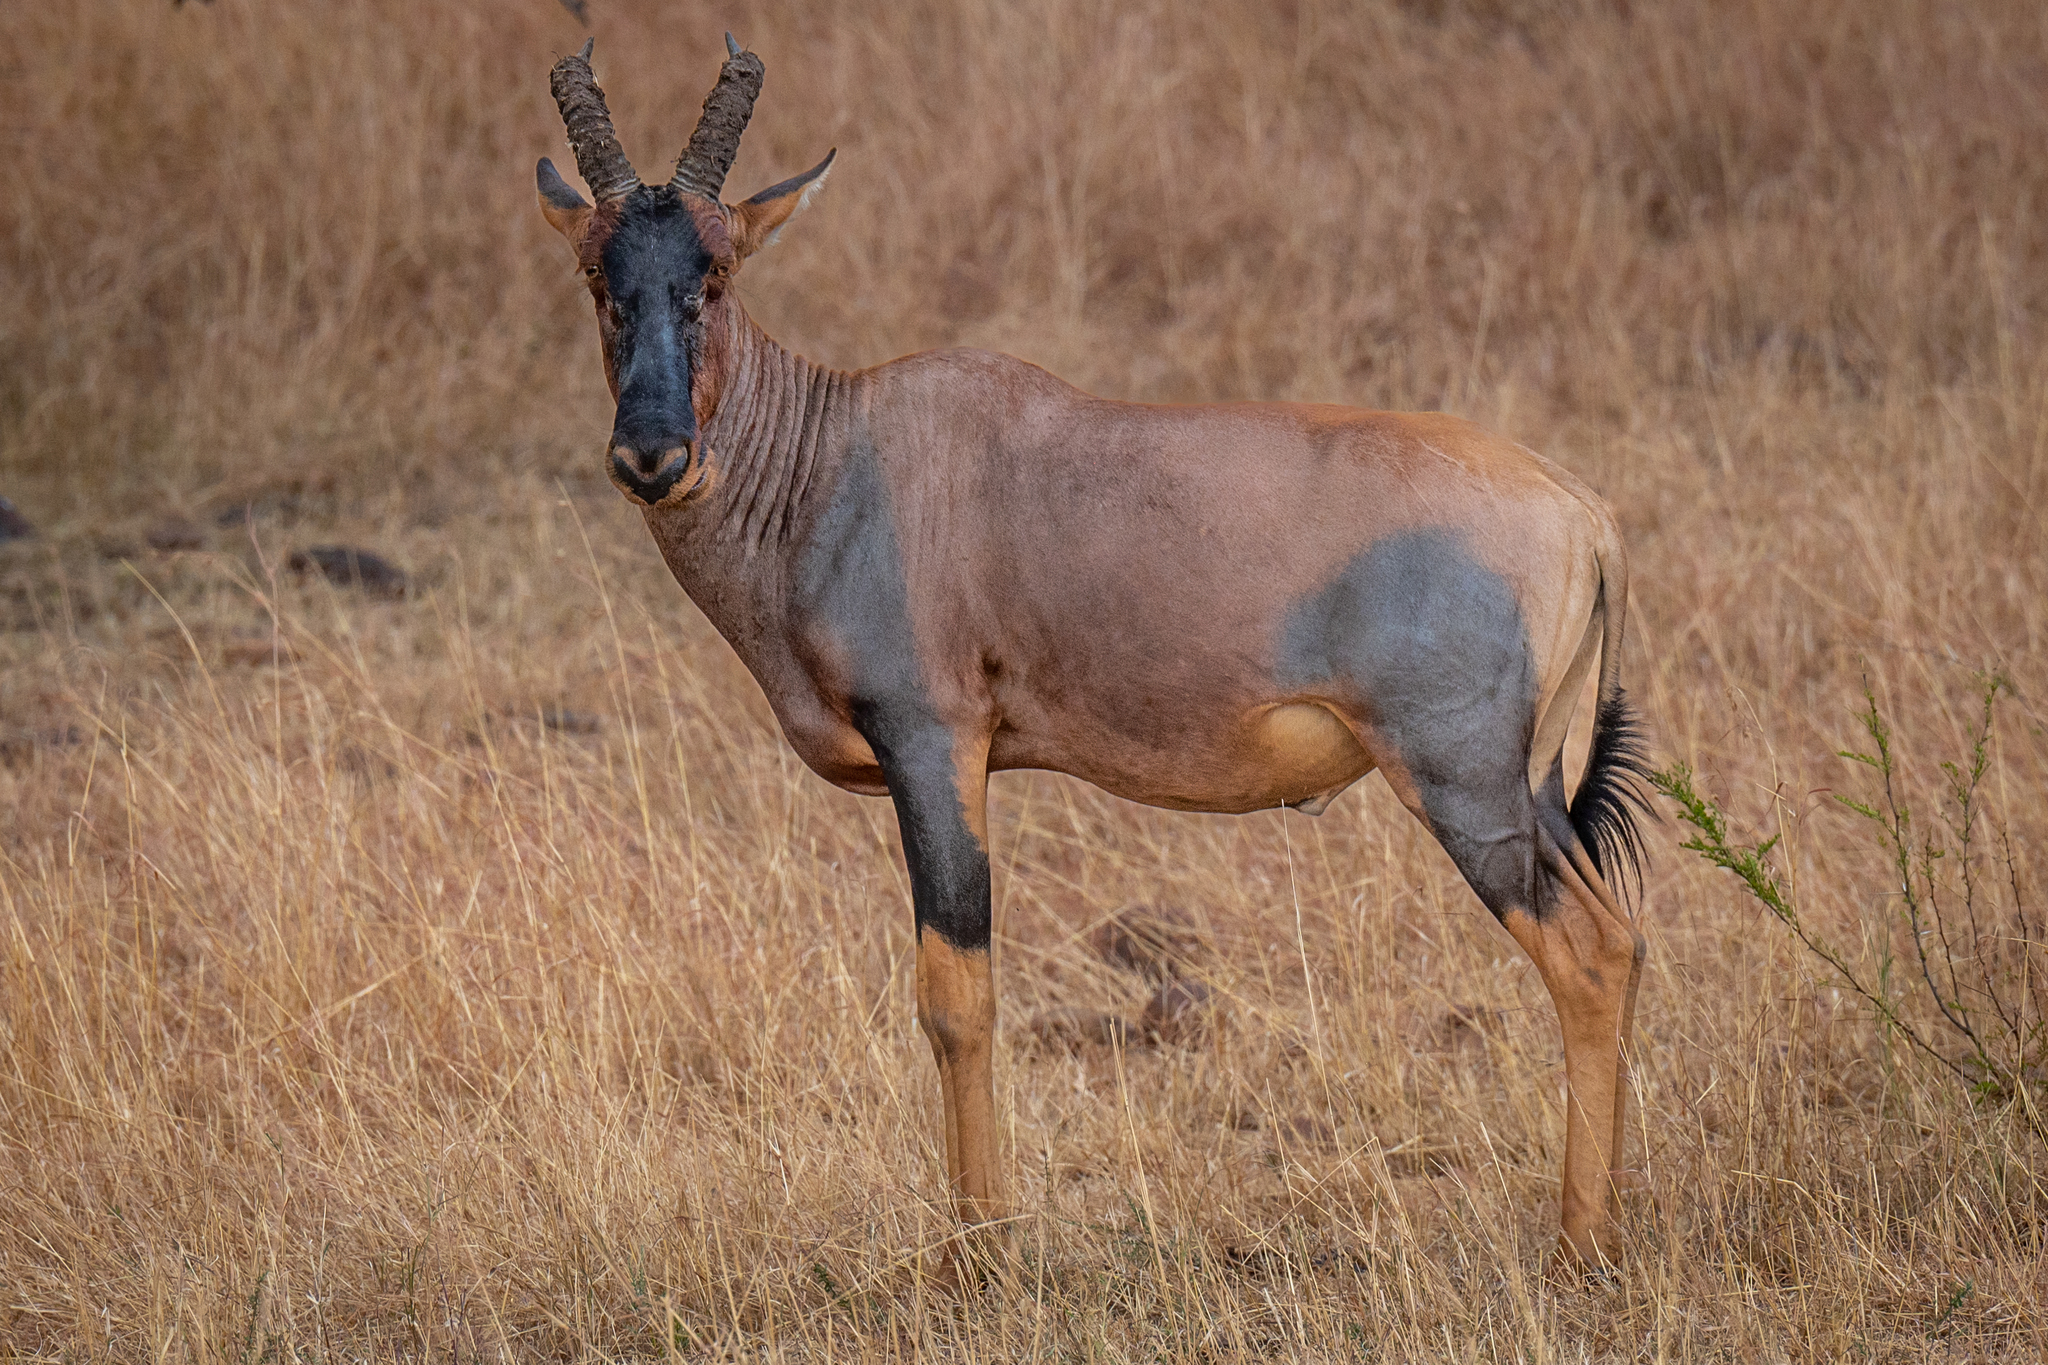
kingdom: Animalia
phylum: Chordata
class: Mammalia
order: Artiodactyla
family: Bovidae
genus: Damaliscus
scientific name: Damaliscus korrigum
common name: Topi
